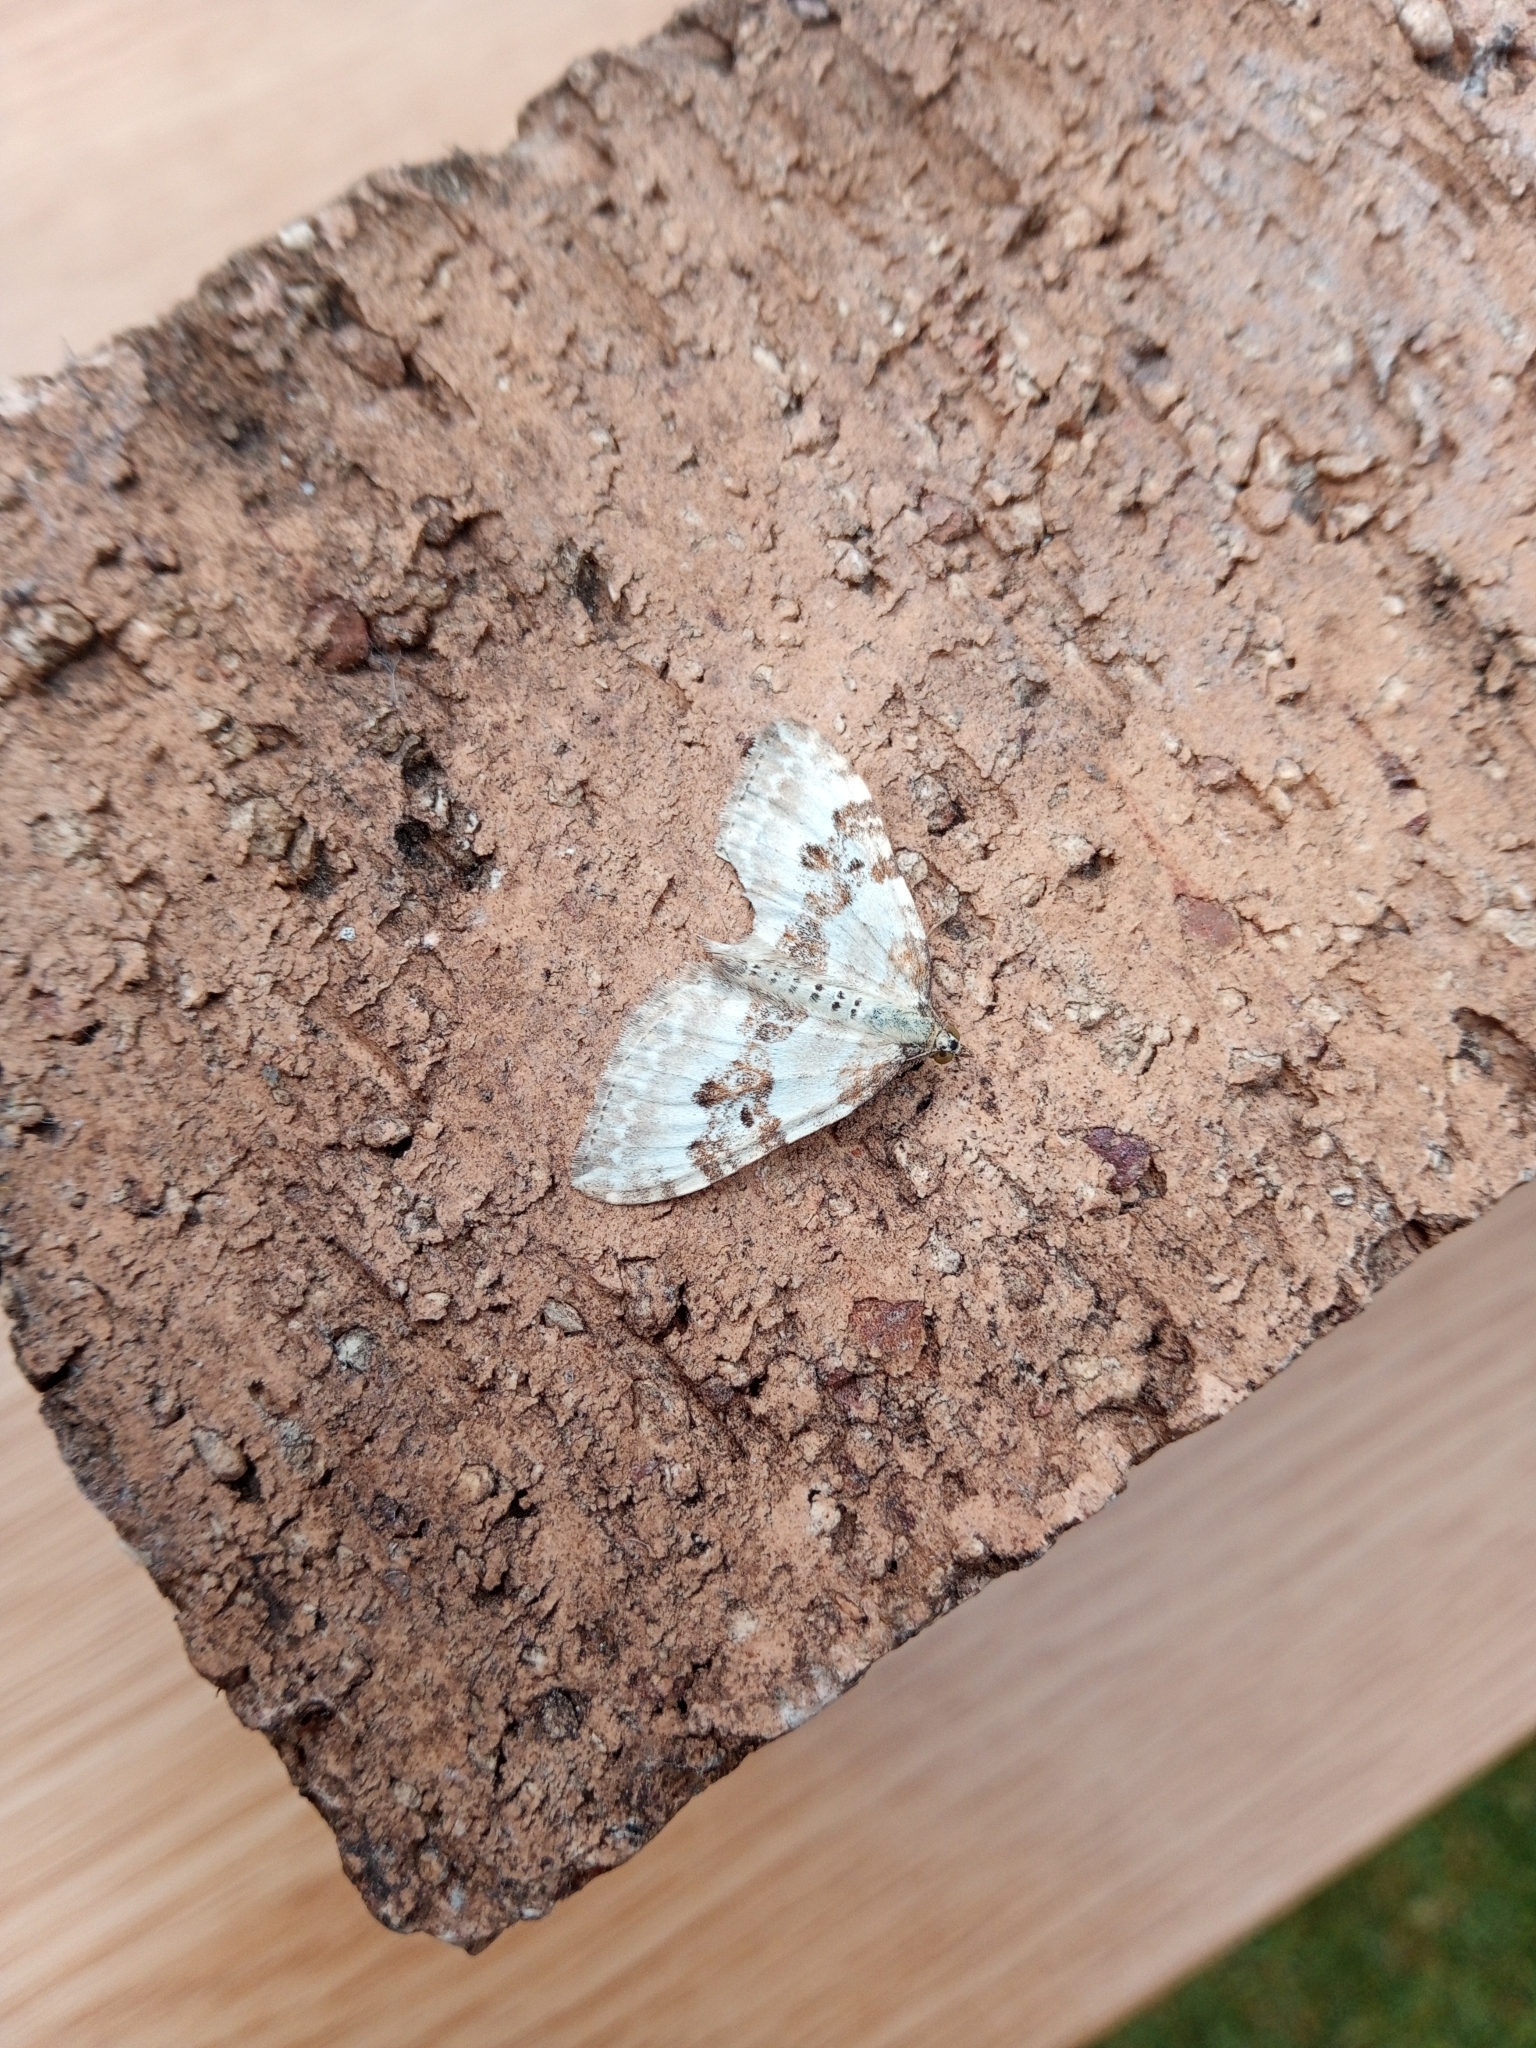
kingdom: Animalia
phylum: Arthropoda
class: Insecta
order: Lepidoptera
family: Geometridae
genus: Xanthorhoe
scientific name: Xanthorhoe montanata
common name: Silver-ground carpet
